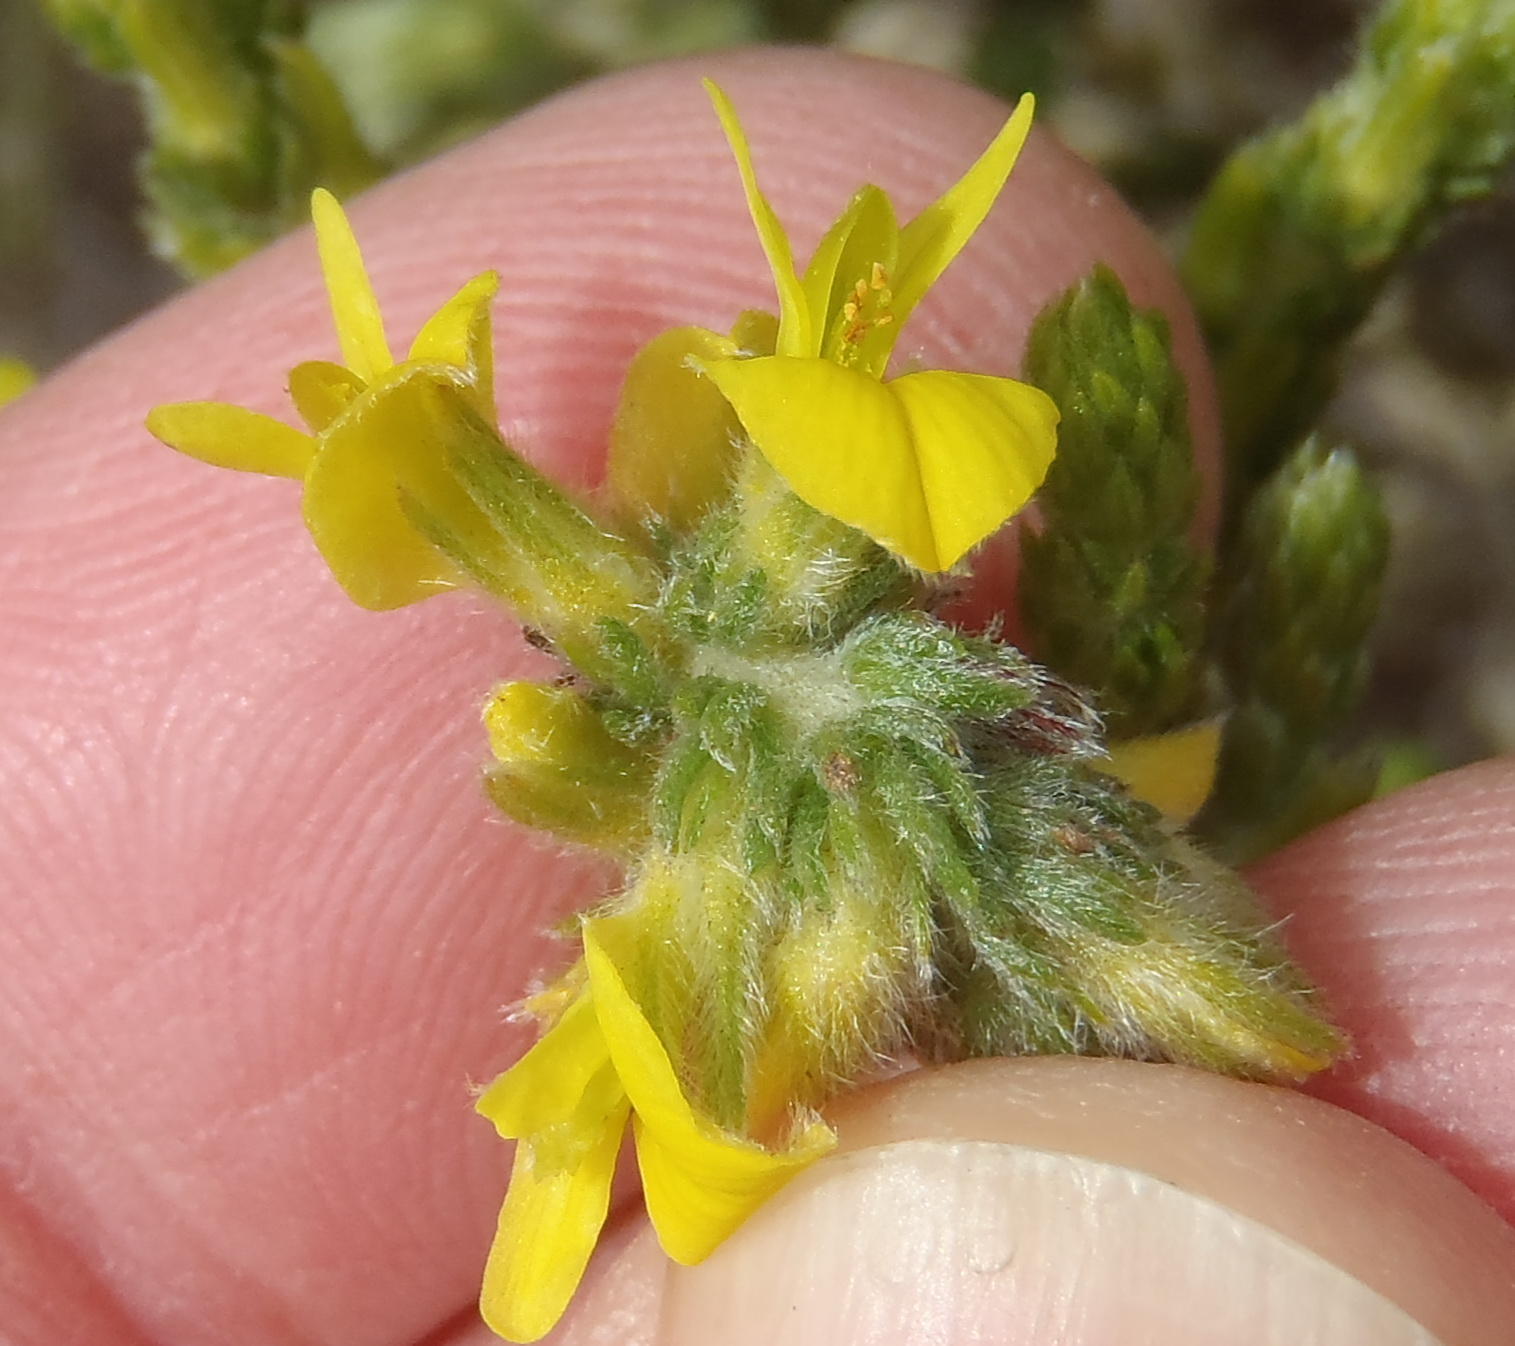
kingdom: Plantae
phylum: Tracheophyta
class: Magnoliopsida
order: Fabales
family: Fabaceae
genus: Aspalathus
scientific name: Aspalathus ericifolia
